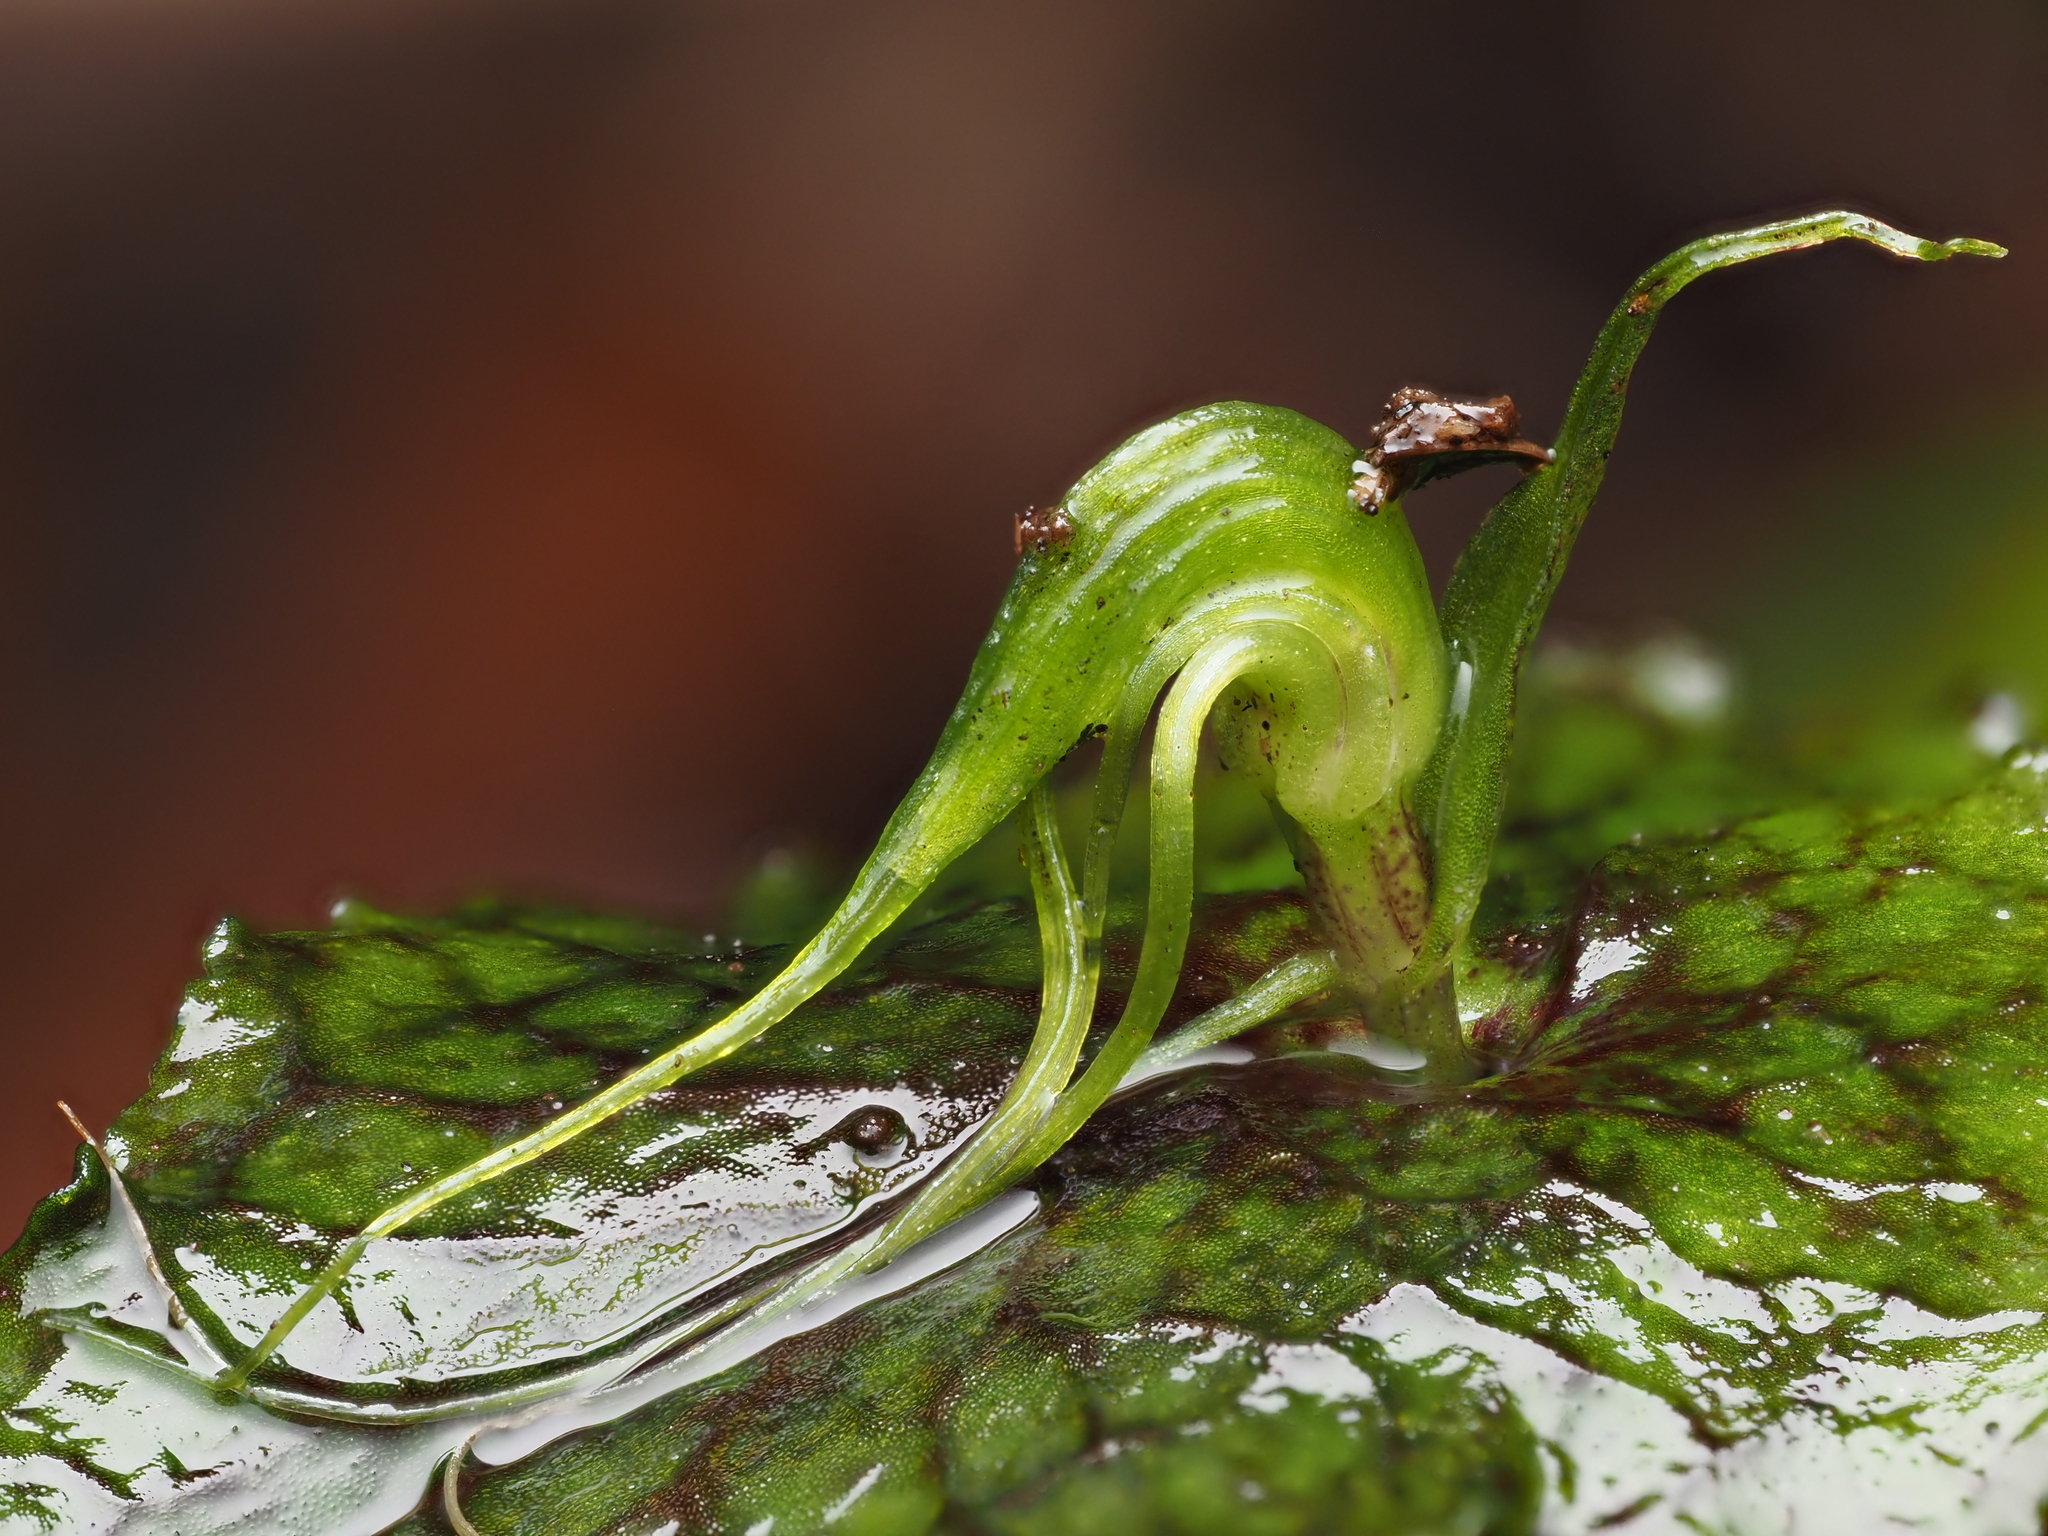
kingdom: Plantae
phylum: Tracheophyta
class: Liliopsida
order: Asparagales
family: Orchidaceae
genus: Corybas
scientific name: Corybas acuminatus
